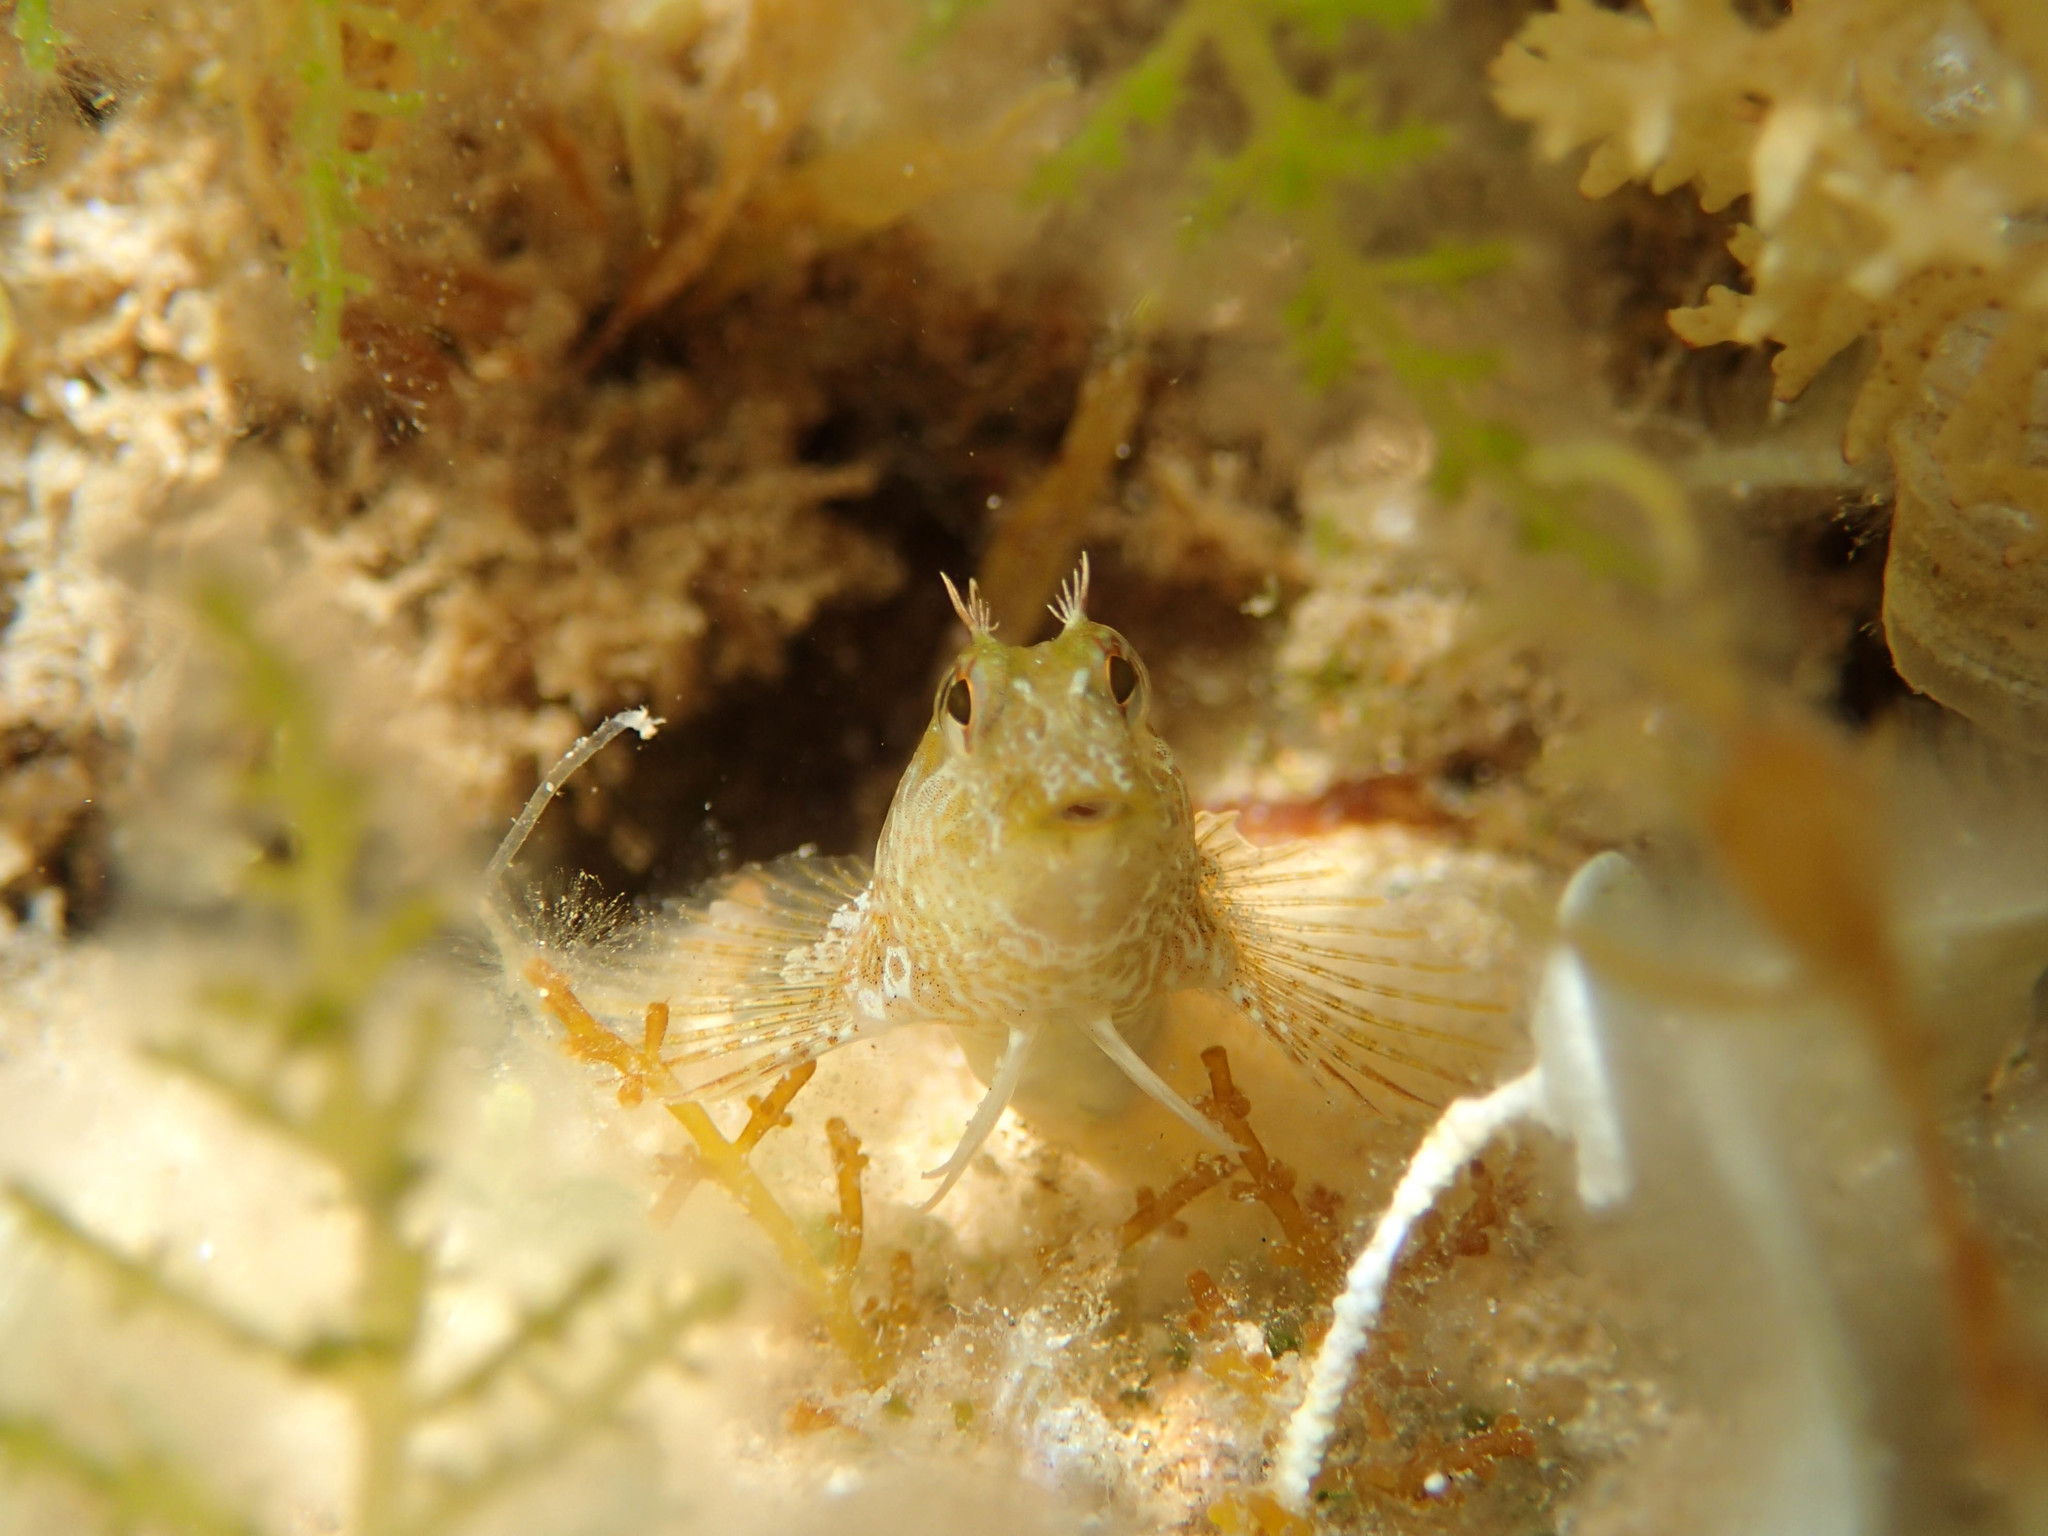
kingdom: Animalia
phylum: Chordata
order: Perciformes
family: Blenniidae
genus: Parablennius
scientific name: Parablennius incognitus
